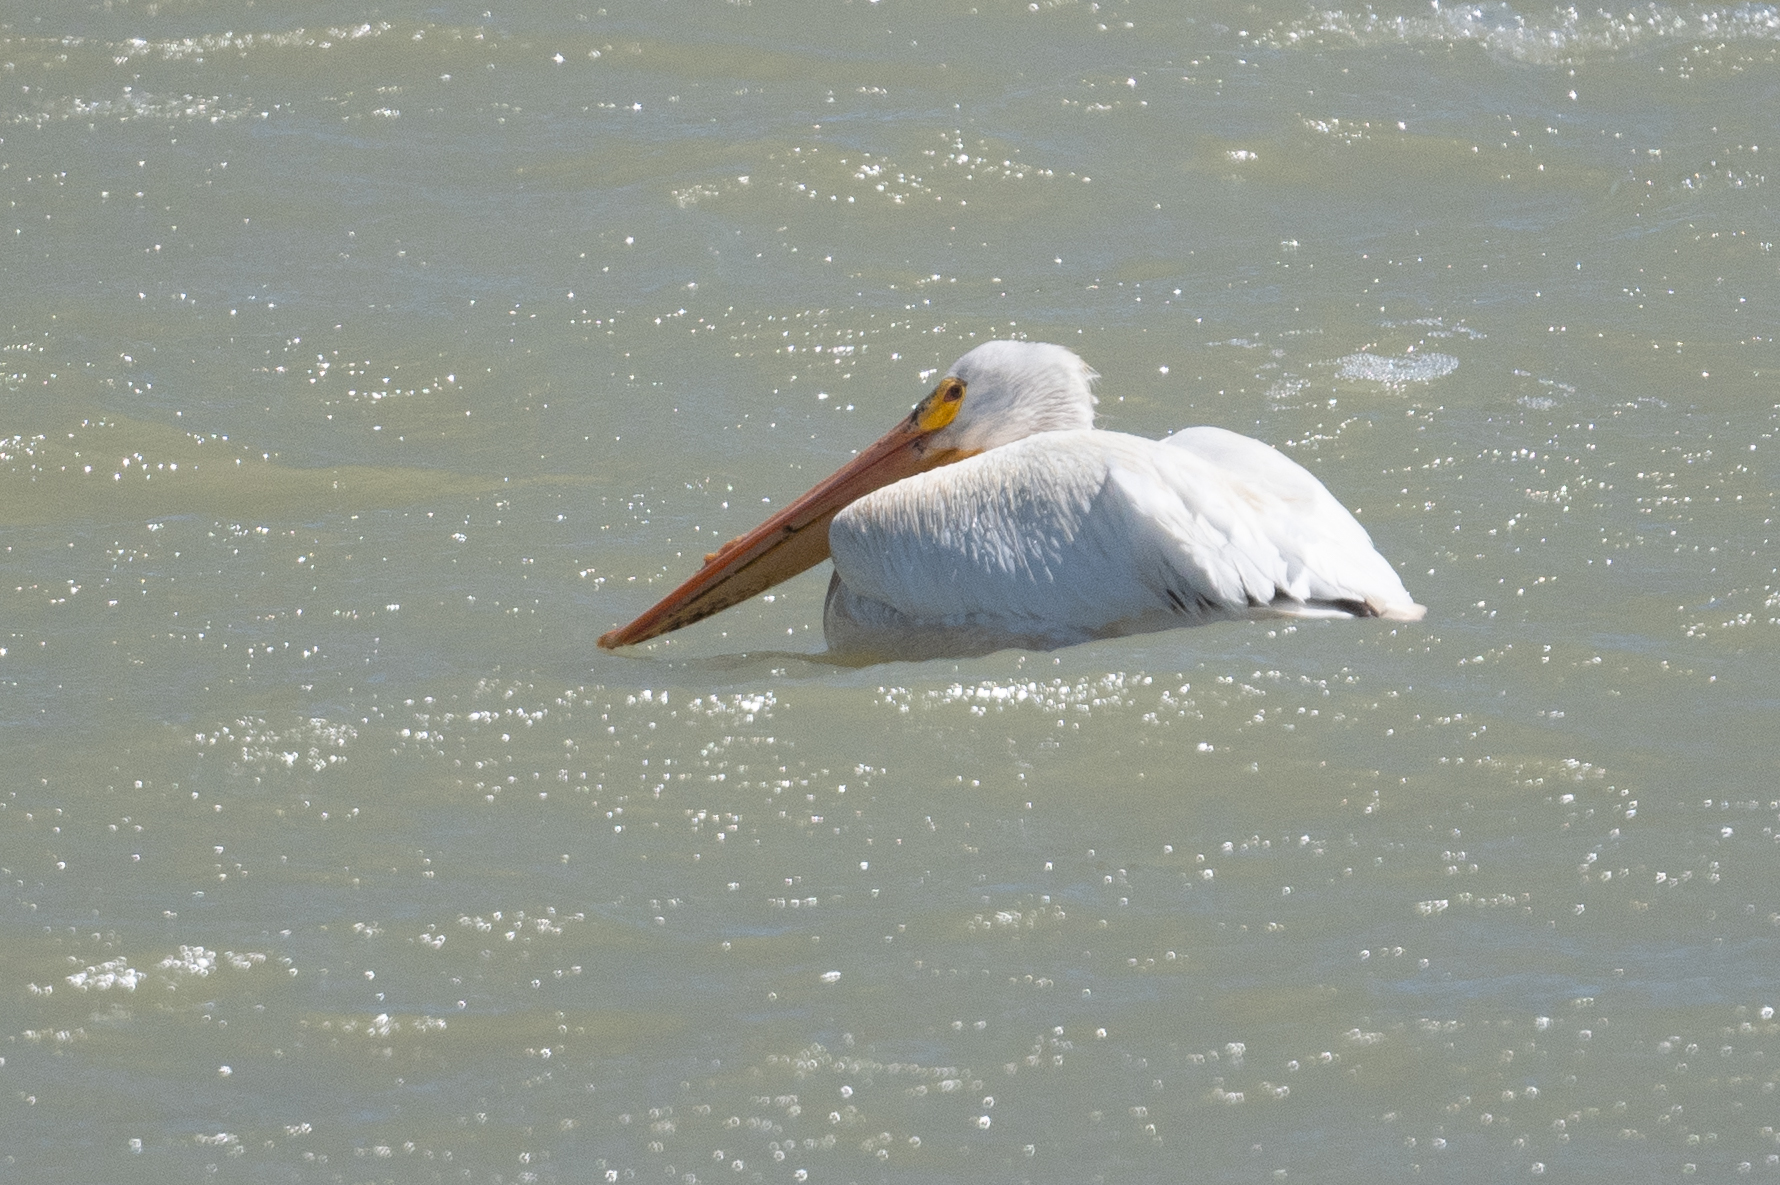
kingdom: Animalia
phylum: Chordata
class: Aves
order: Pelecaniformes
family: Pelecanidae
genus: Pelecanus
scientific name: Pelecanus erythrorhynchos
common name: American white pelican
